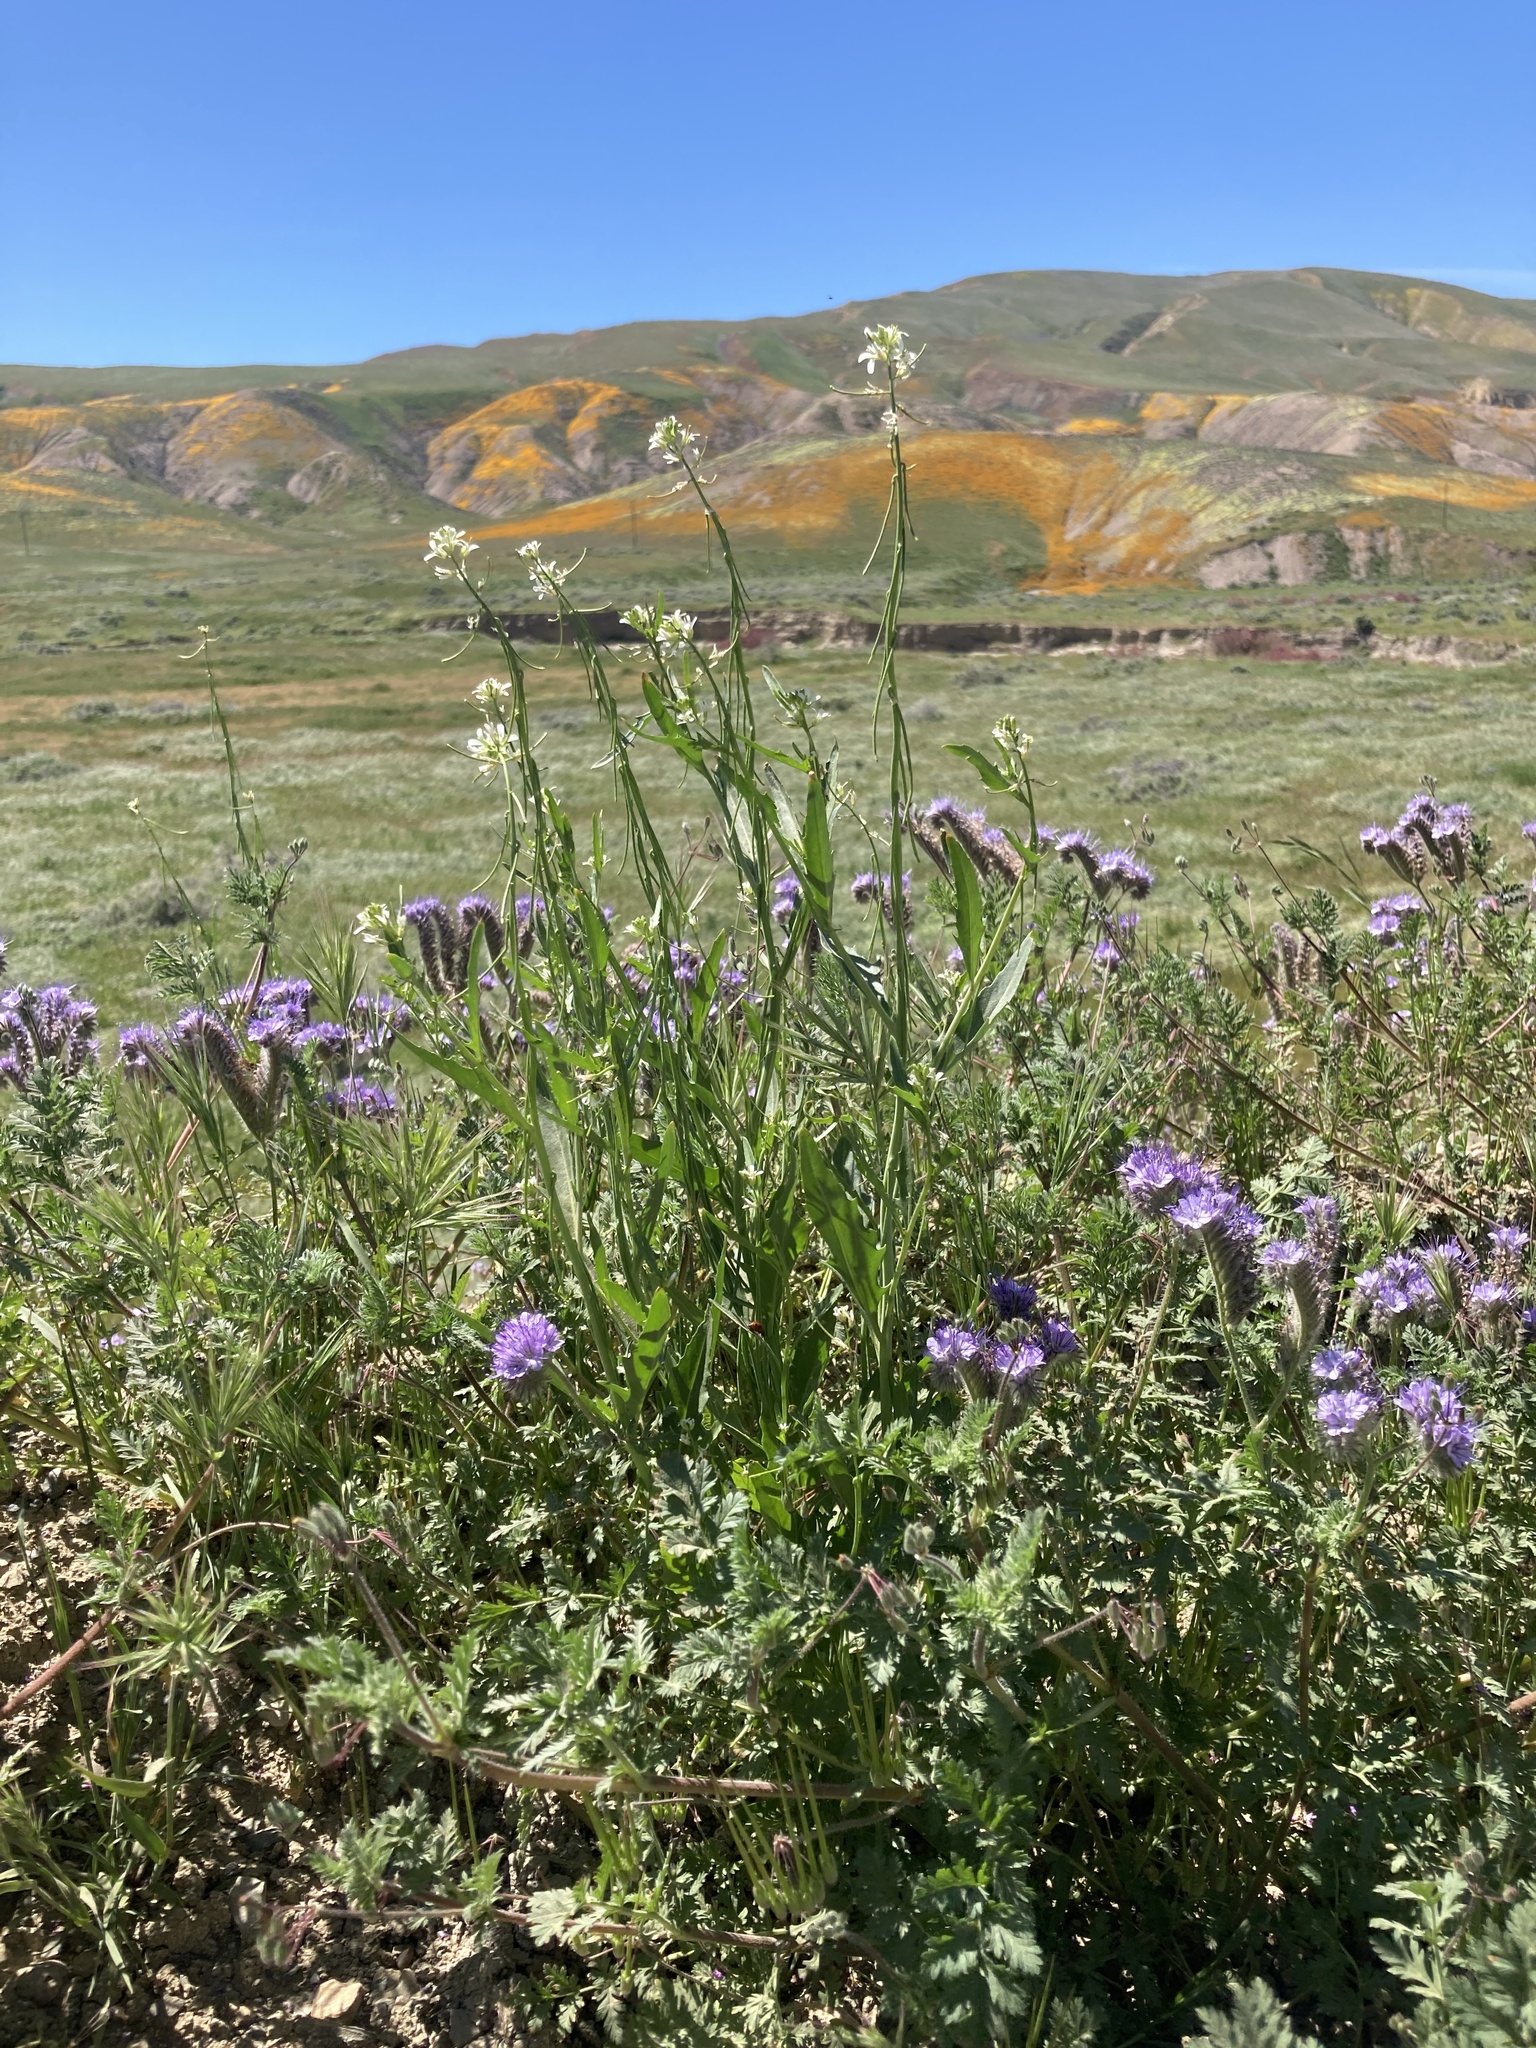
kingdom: Plantae
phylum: Tracheophyta
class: Magnoliopsida
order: Brassicales
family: Brassicaceae
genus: Streptanthus
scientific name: Streptanthus lasiophyllus
